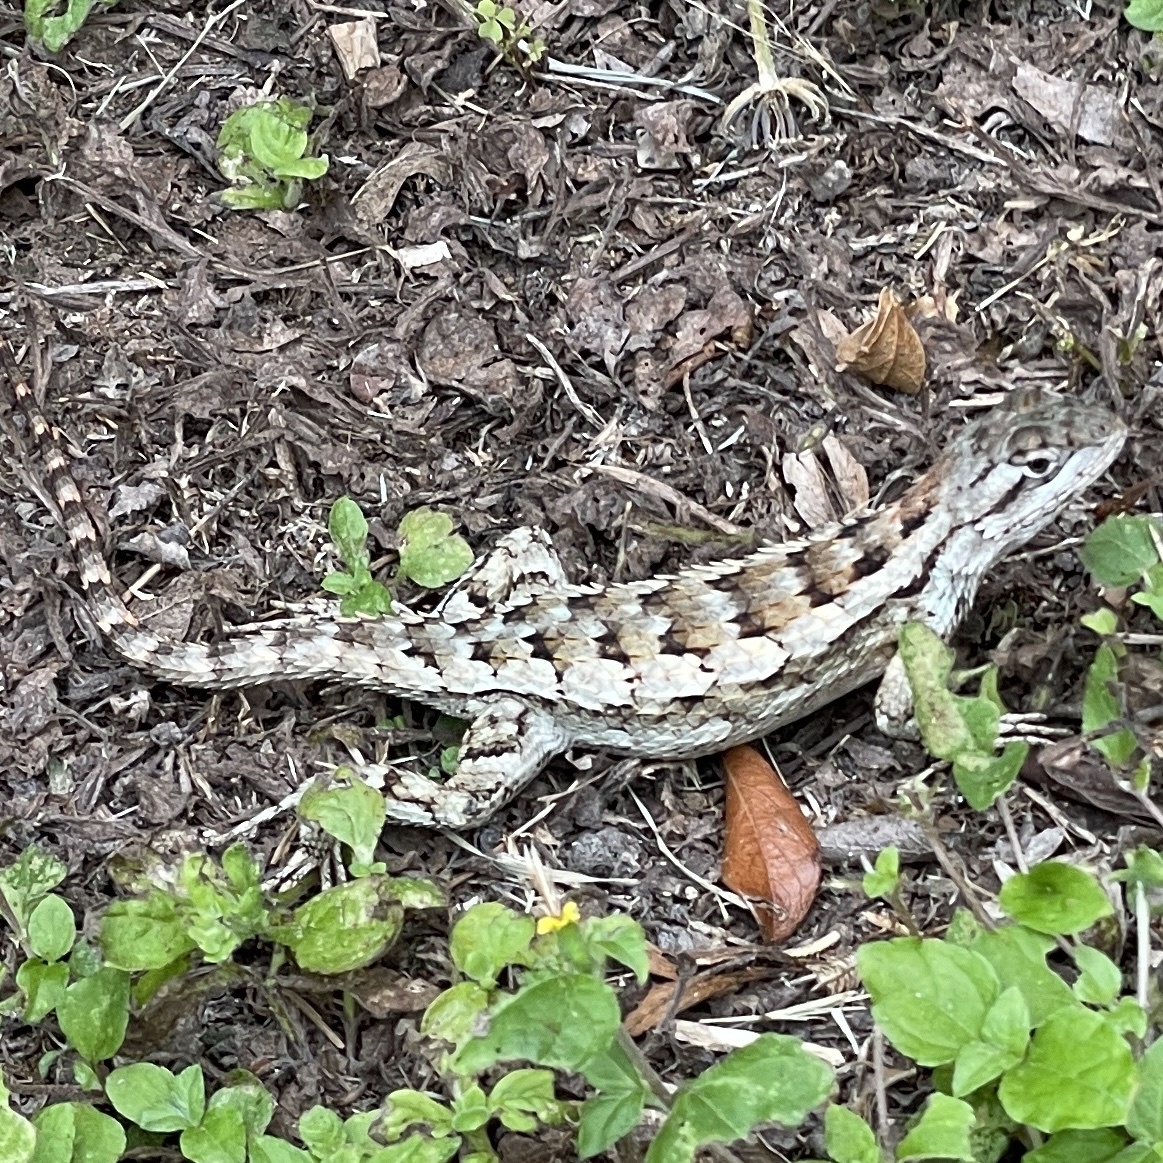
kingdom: Animalia
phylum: Chordata
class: Squamata
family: Phrynosomatidae
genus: Sceloporus
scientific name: Sceloporus olivaceus
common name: Texas spiny lizard
